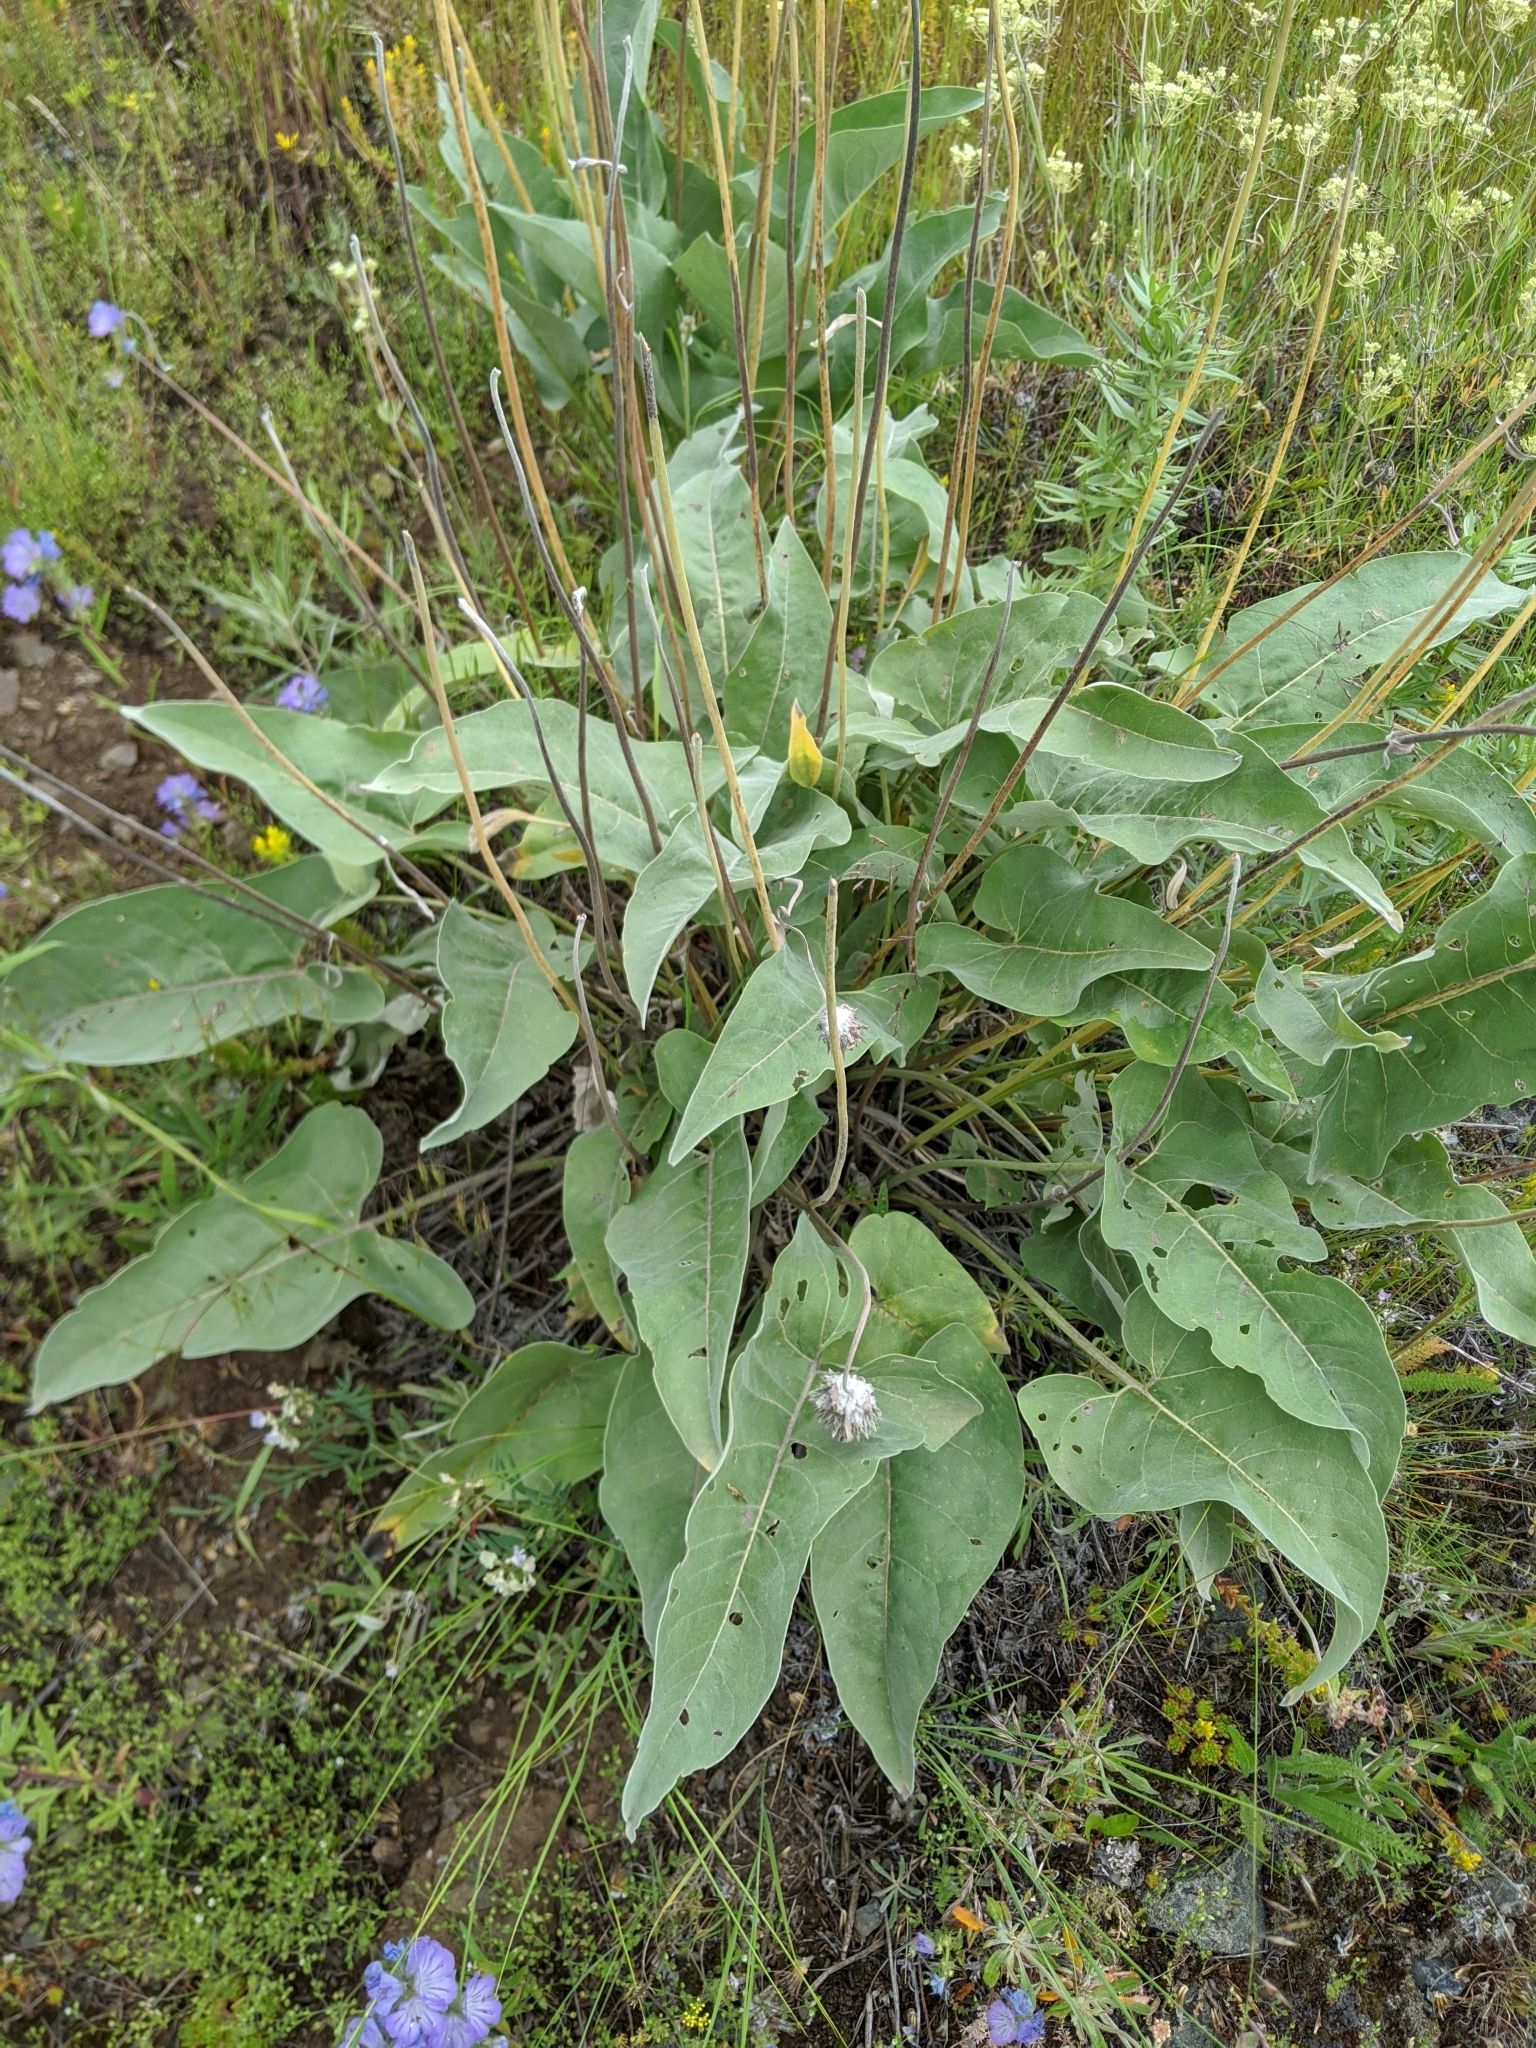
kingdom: Plantae
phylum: Tracheophyta
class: Magnoliopsida
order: Asterales
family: Asteraceae
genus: Wyethia
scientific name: Wyethia sagittata
